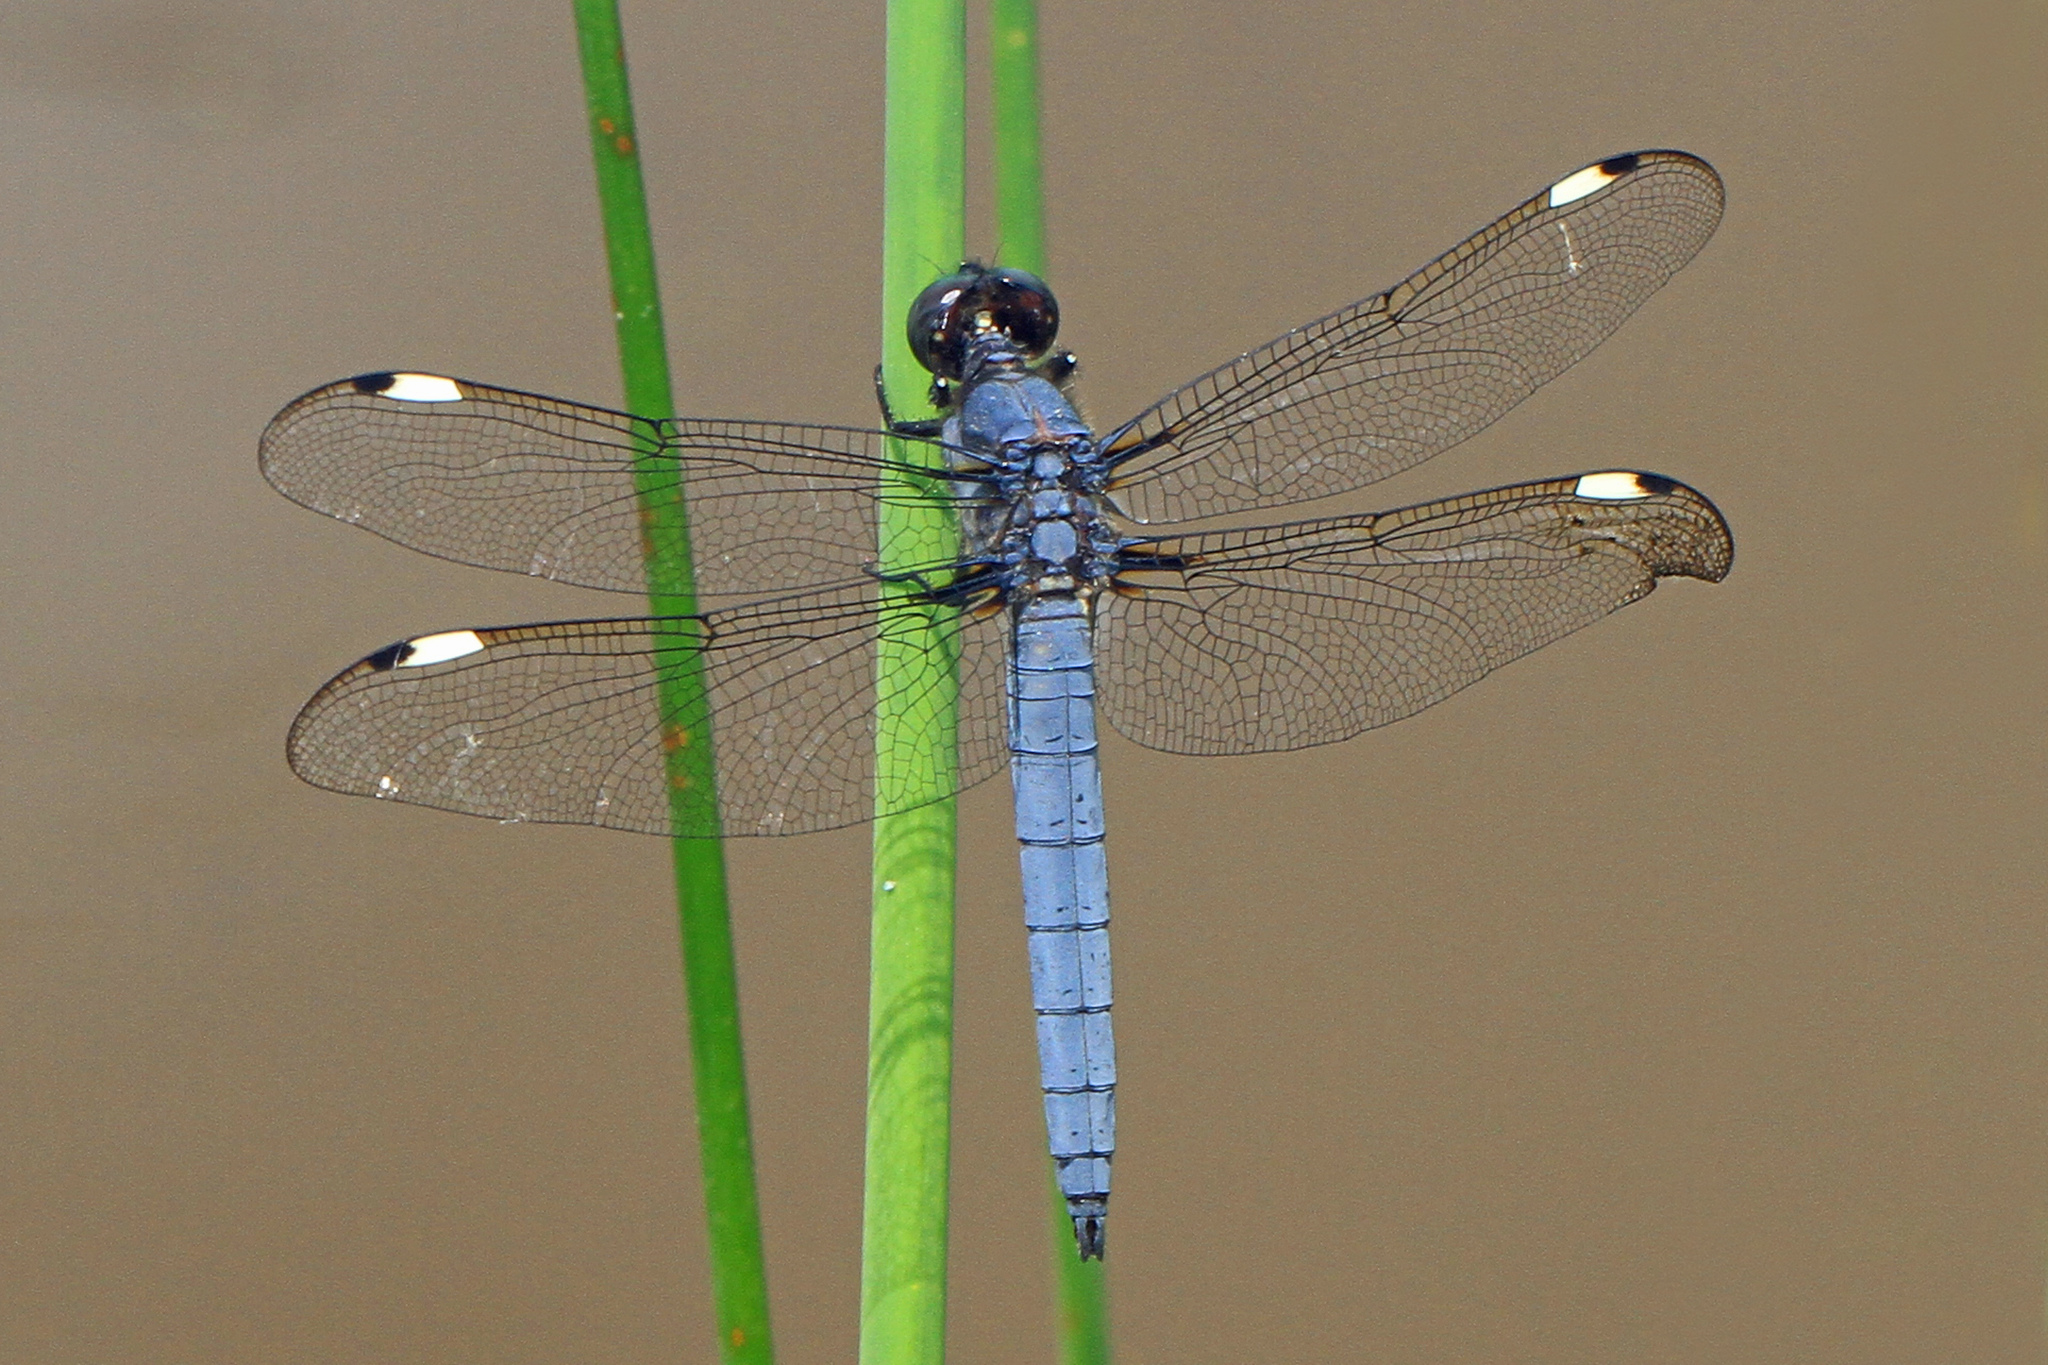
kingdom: Animalia
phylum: Arthropoda
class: Insecta
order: Odonata
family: Libellulidae
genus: Libellula
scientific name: Libellula cyanea
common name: Spangled skimmer
